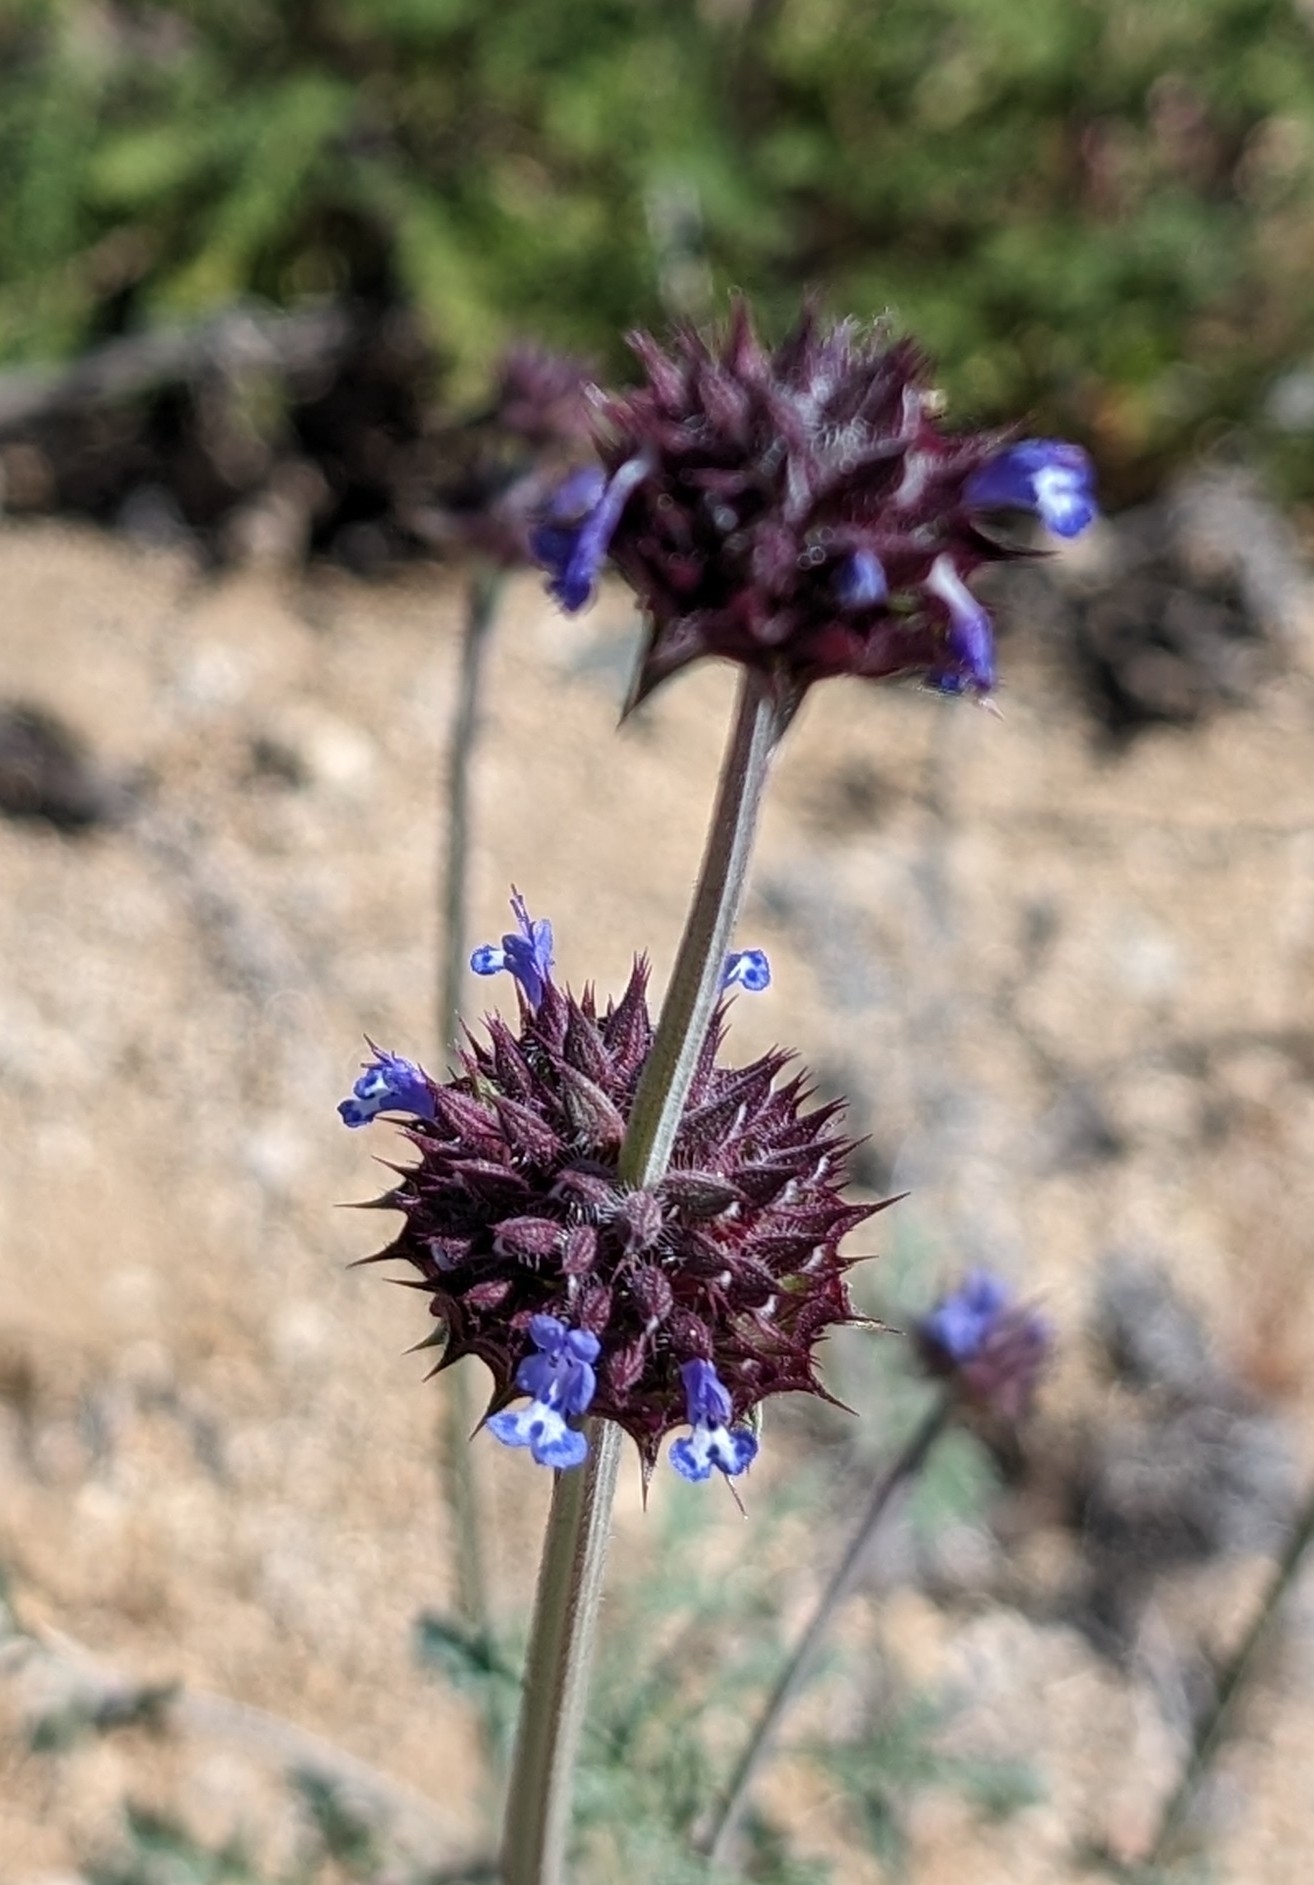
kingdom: Plantae
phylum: Tracheophyta
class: Magnoliopsida
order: Lamiales
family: Lamiaceae
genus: Salvia
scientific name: Salvia columbariae
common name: Chia
